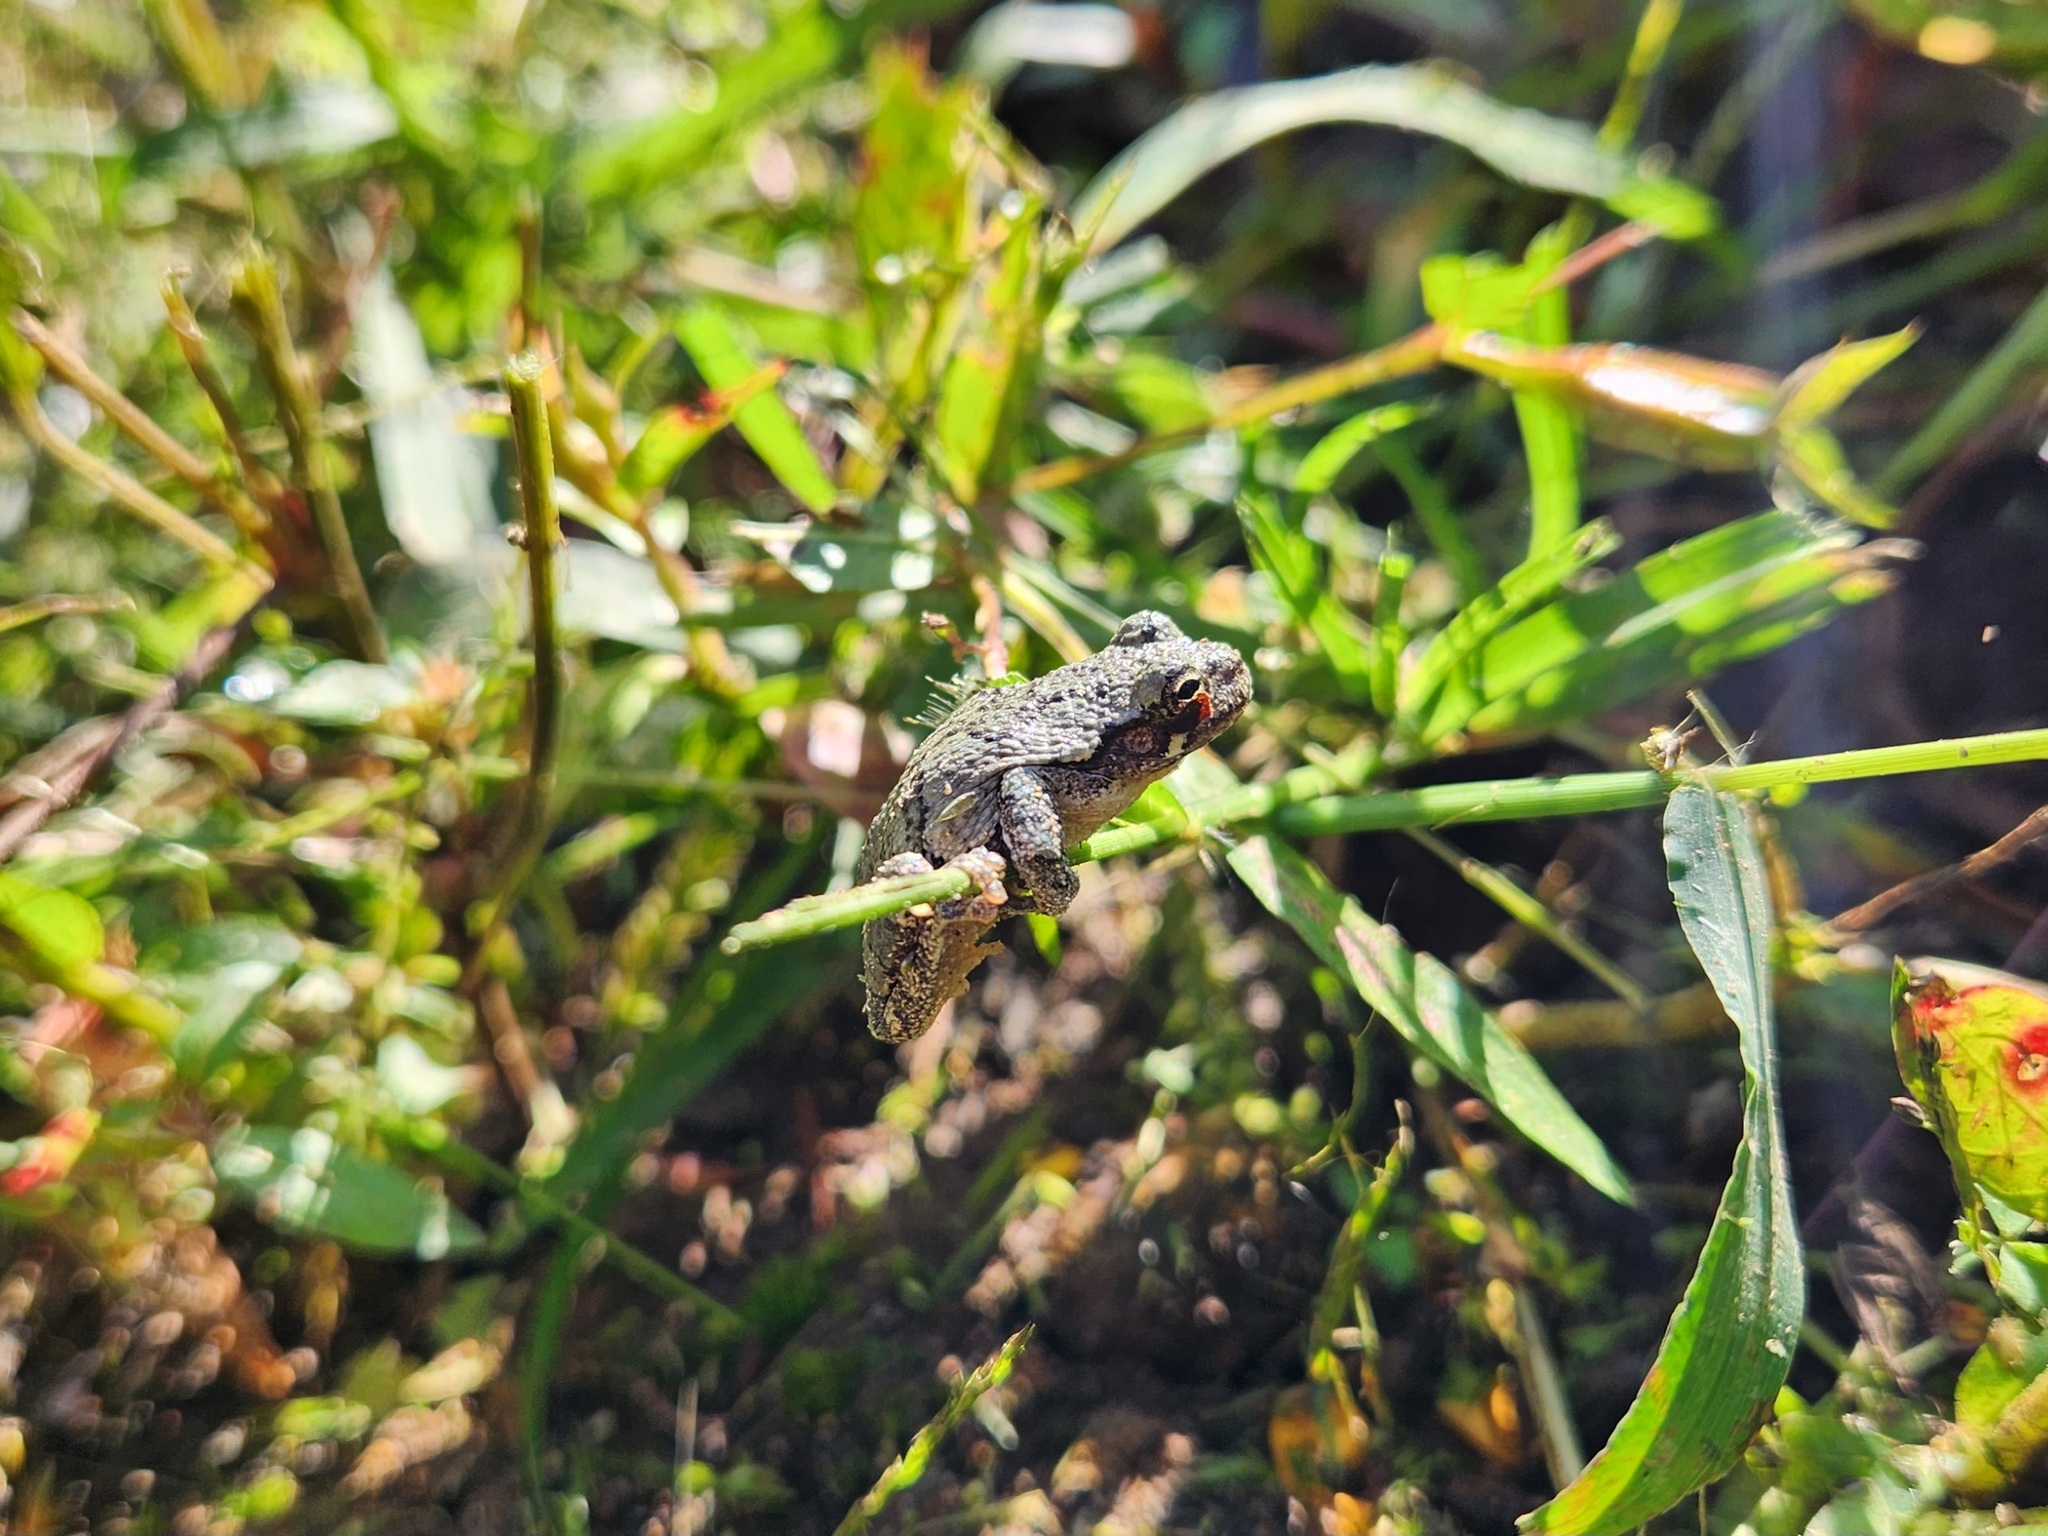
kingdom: Animalia
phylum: Chordata
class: Amphibia
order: Anura
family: Hylidae
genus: Dryophytes
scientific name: Dryophytes chrysoscelis
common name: Cope's gray treefrog
